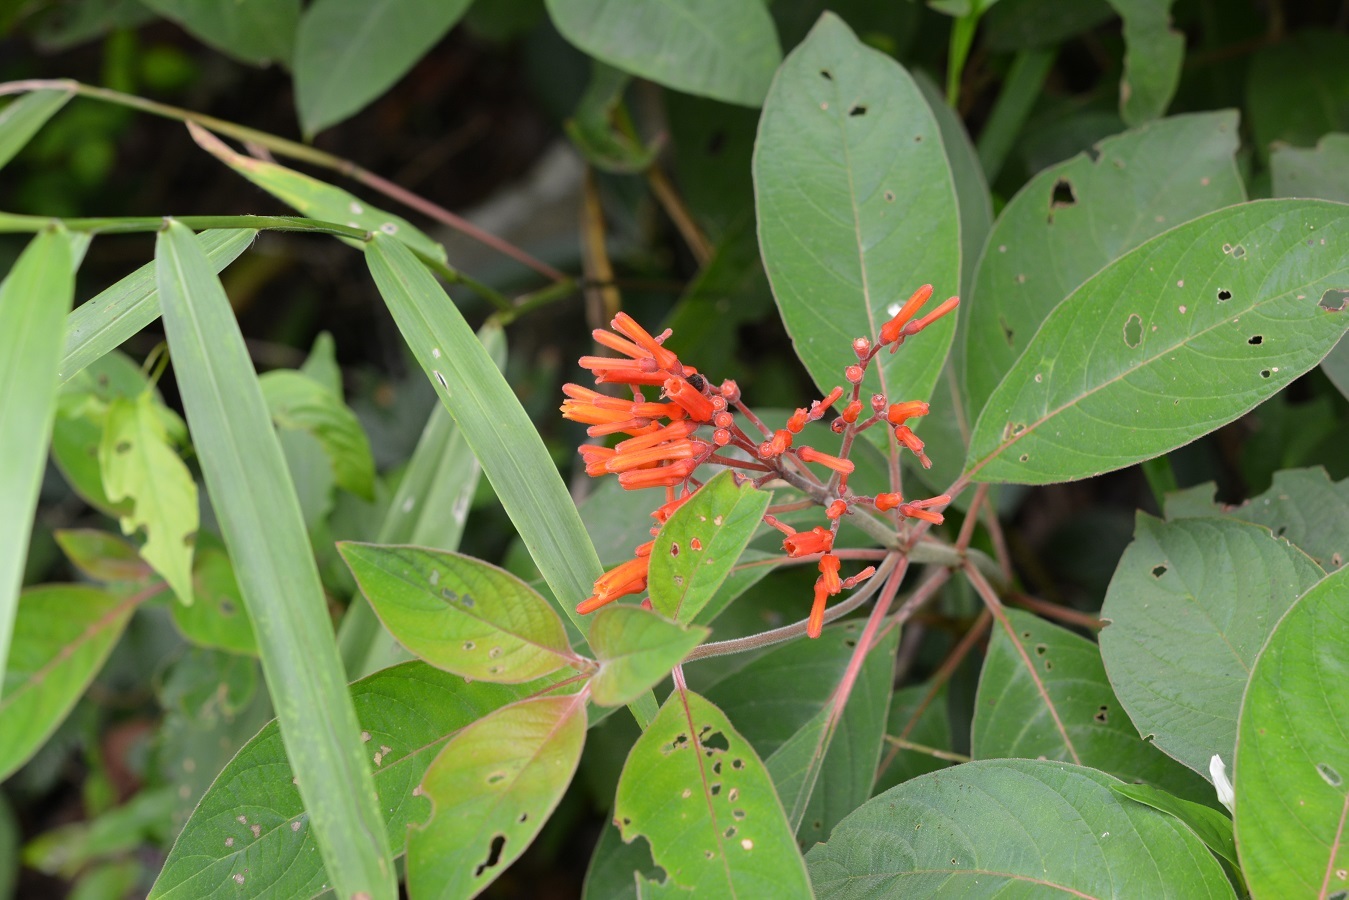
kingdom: Plantae
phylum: Tracheophyta
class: Magnoliopsida
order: Gentianales
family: Rubiaceae
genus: Hamelia
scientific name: Hamelia patens
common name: Redhead
